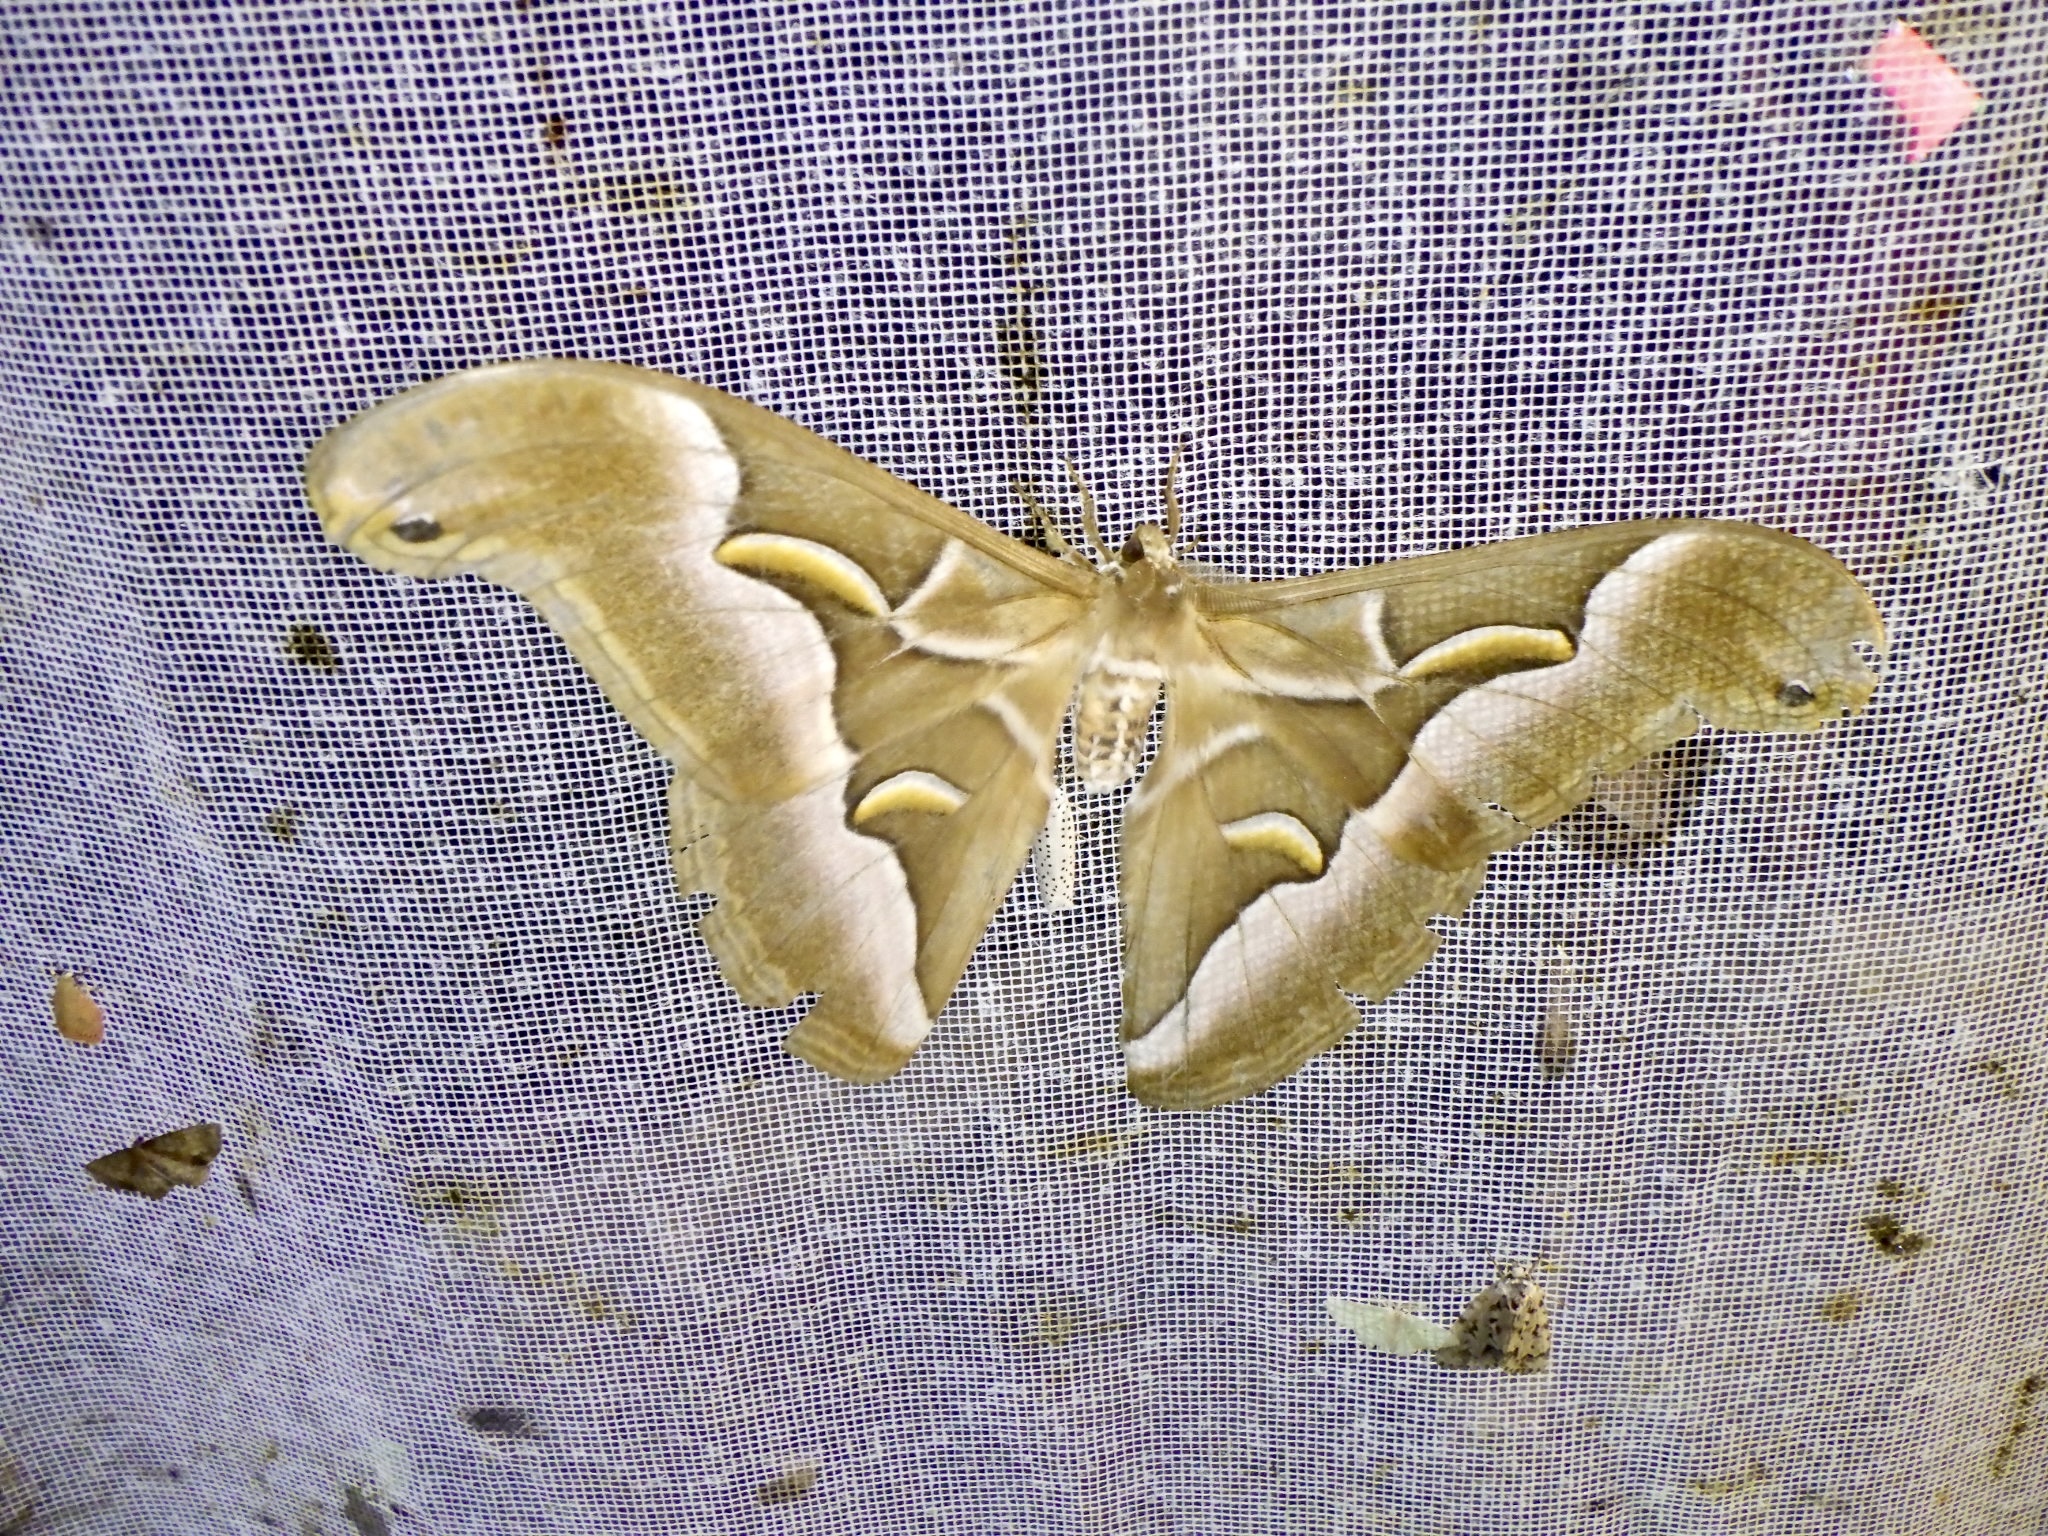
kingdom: Animalia
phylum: Arthropoda
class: Insecta
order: Lepidoptera
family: Saturniidae
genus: Samia
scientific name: Samia cynthia
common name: Ailanthus silkmoth
